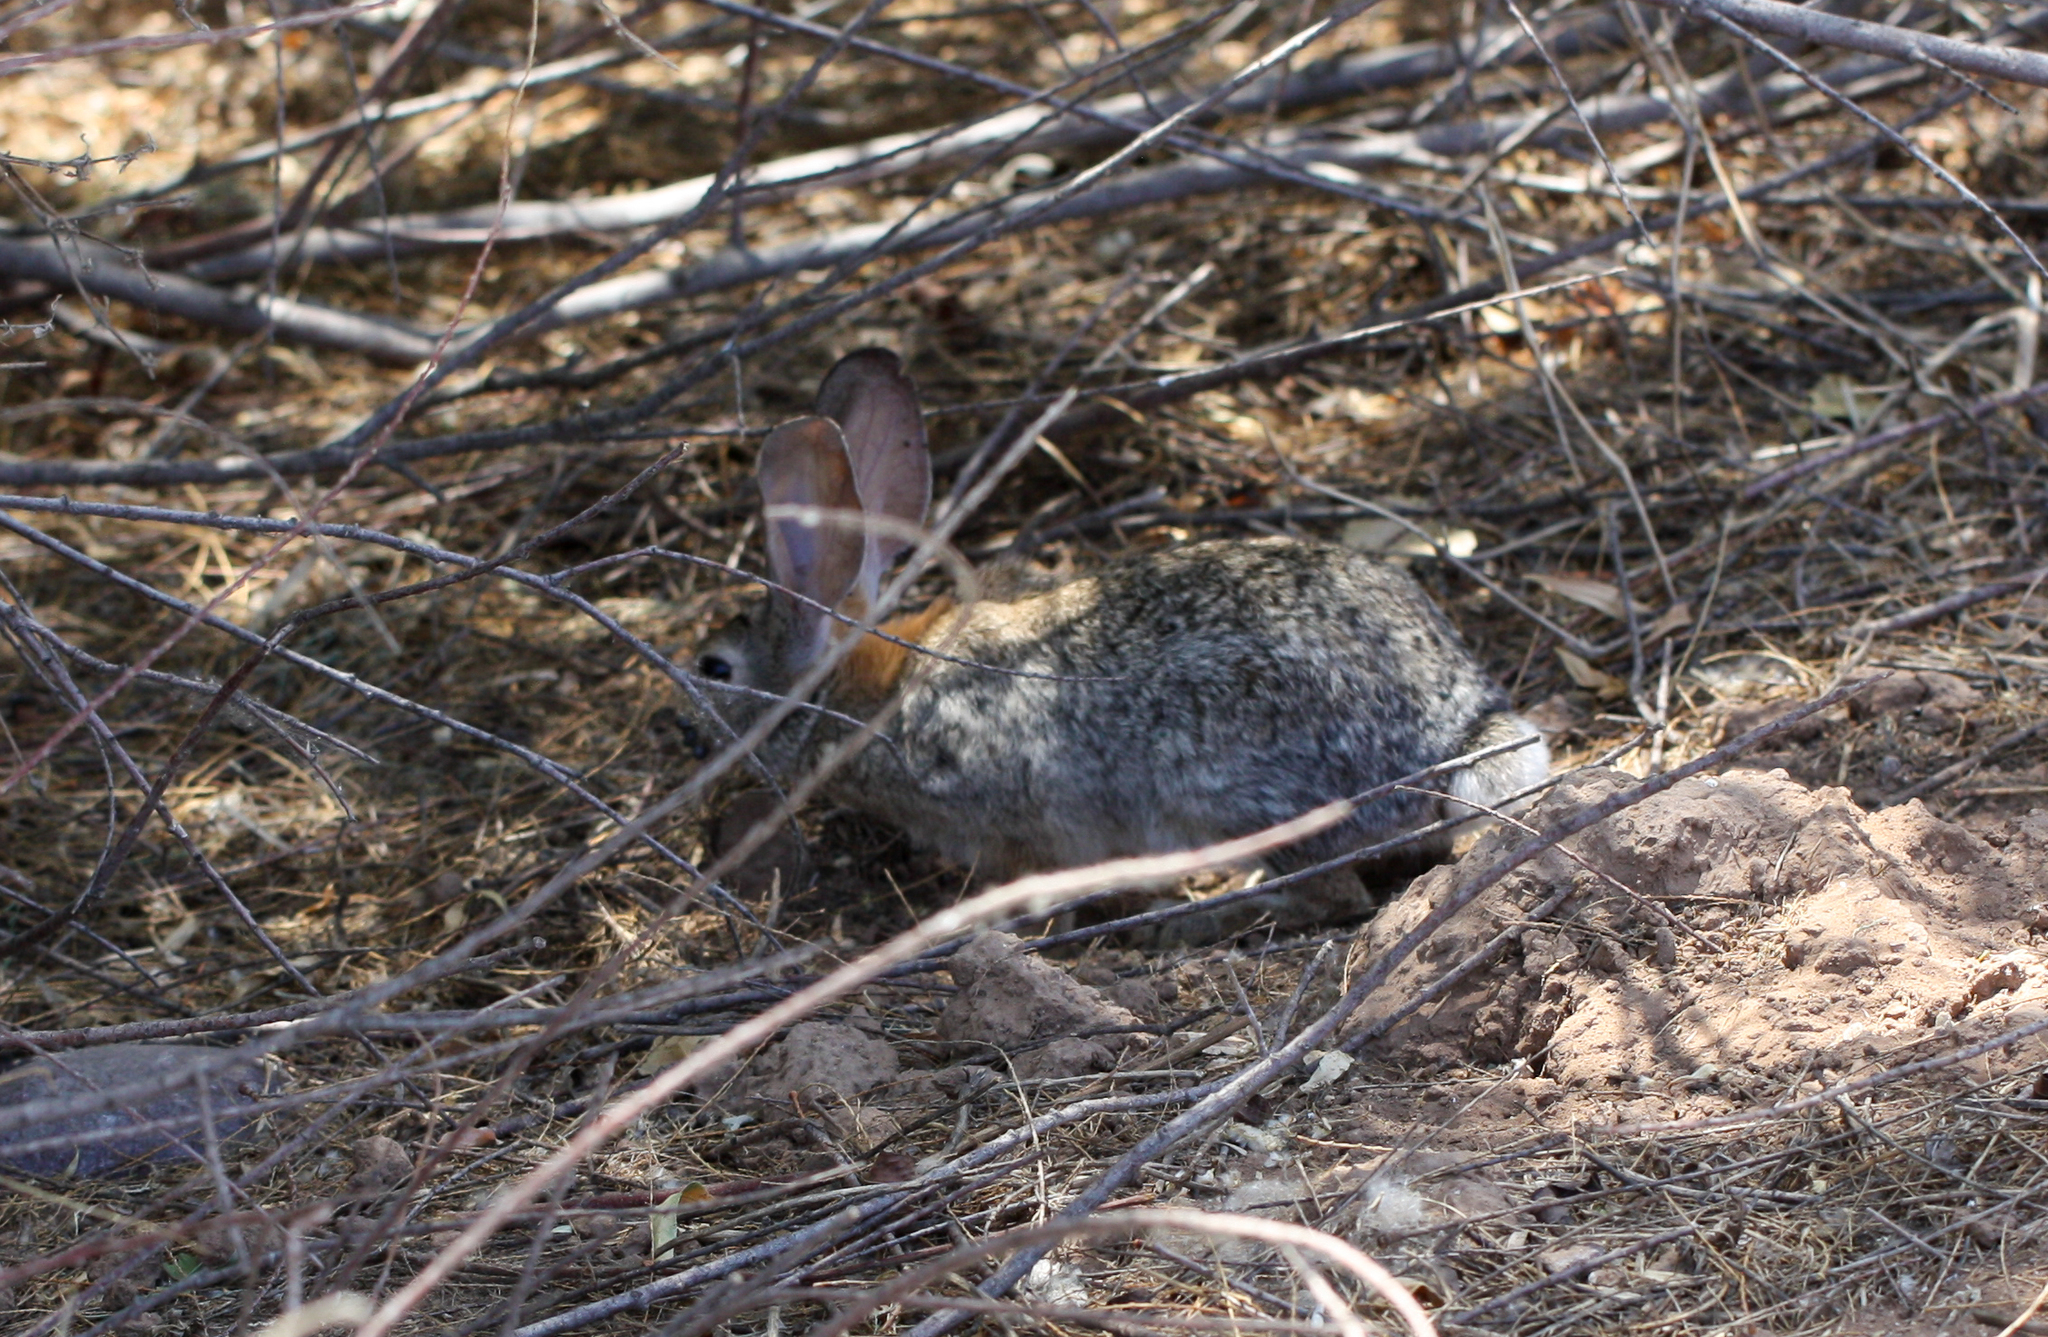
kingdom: Animalia
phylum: Chordata
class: Mammalia
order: Lagomorpha
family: Leporidae
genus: Sylvilagus
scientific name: Sylvilagus audubonii
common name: Desert cottontail
